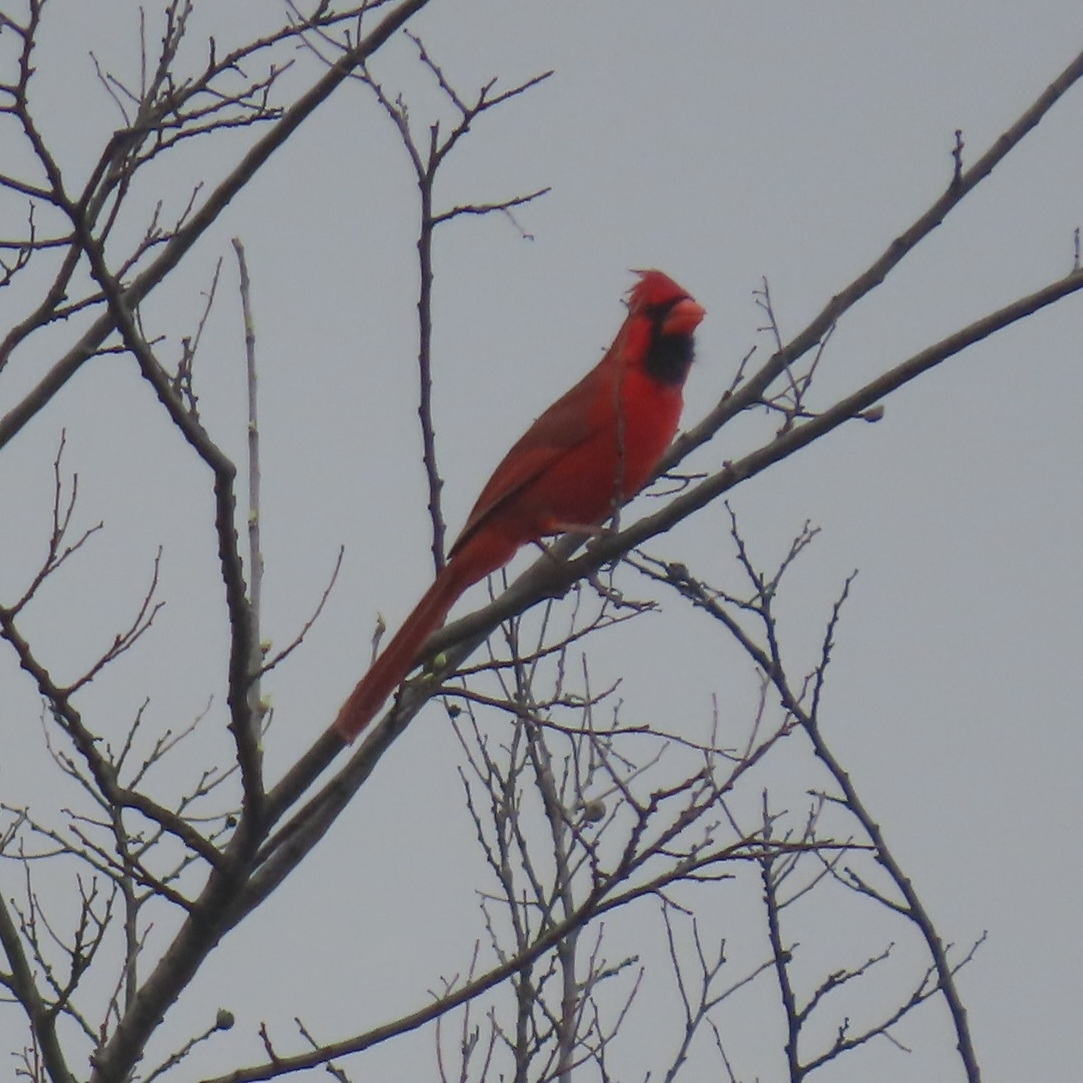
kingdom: Animalia
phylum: Chordata
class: Aves
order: Passeriformes
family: Cardinalidae
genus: Cardinalis
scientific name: Cardinalis cardinalis
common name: Northern cardinal
